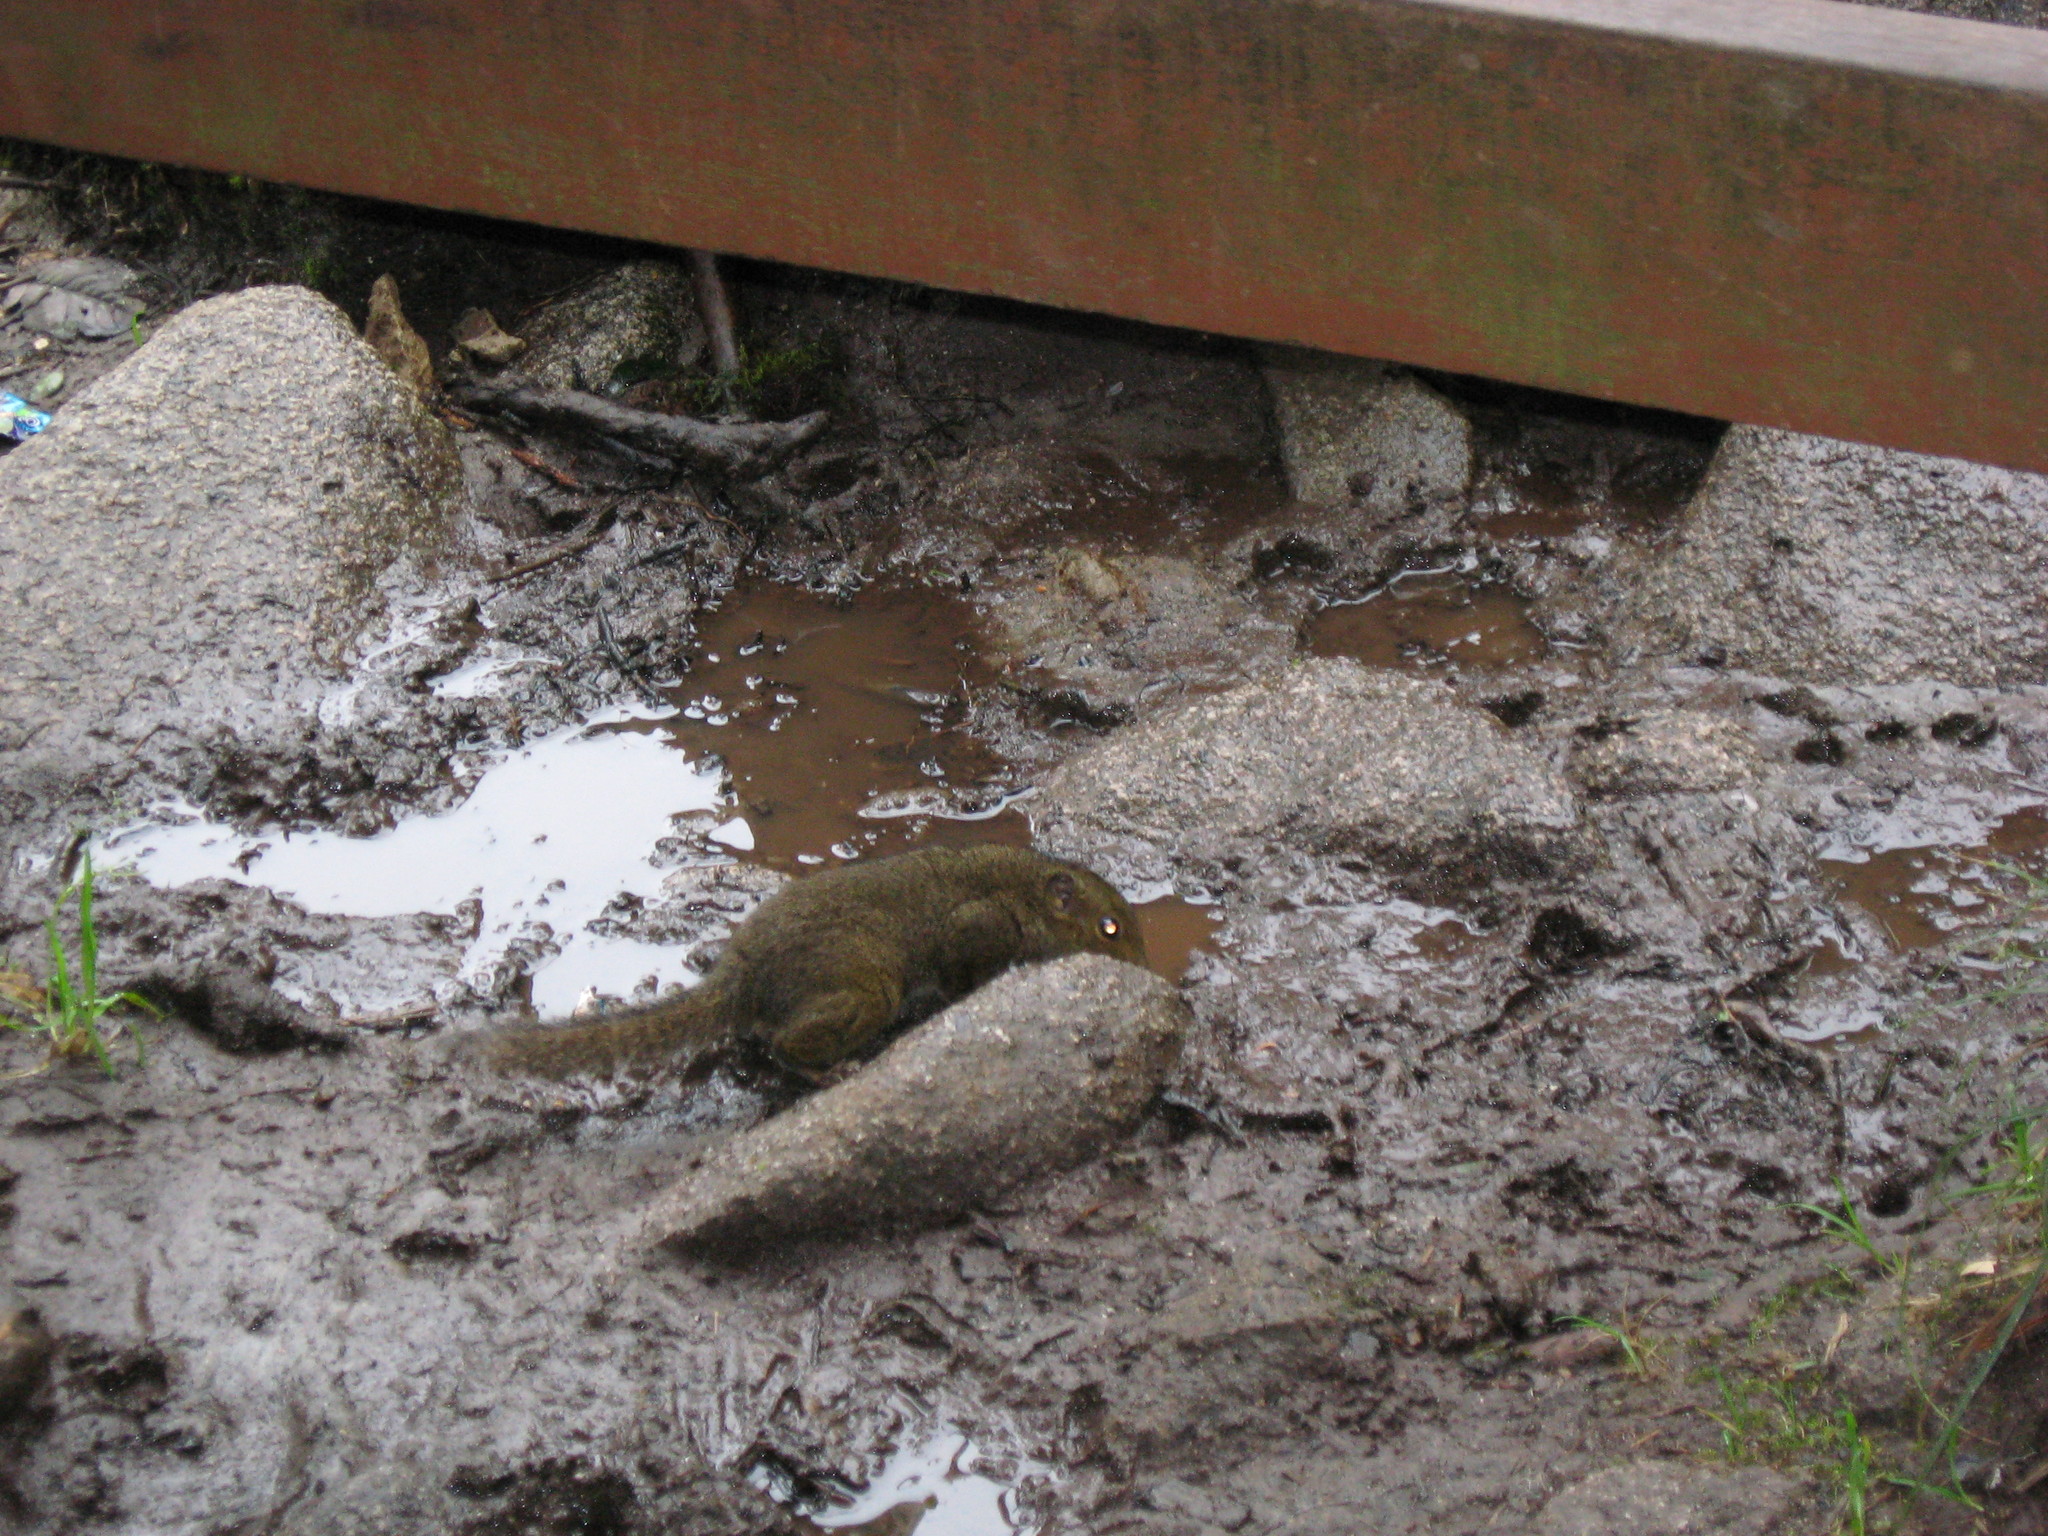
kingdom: Animalia
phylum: Chordata
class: Mammalia
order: Rodentia
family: Sciuridae
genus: Sundasciurus
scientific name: Sundasciurus everetti
